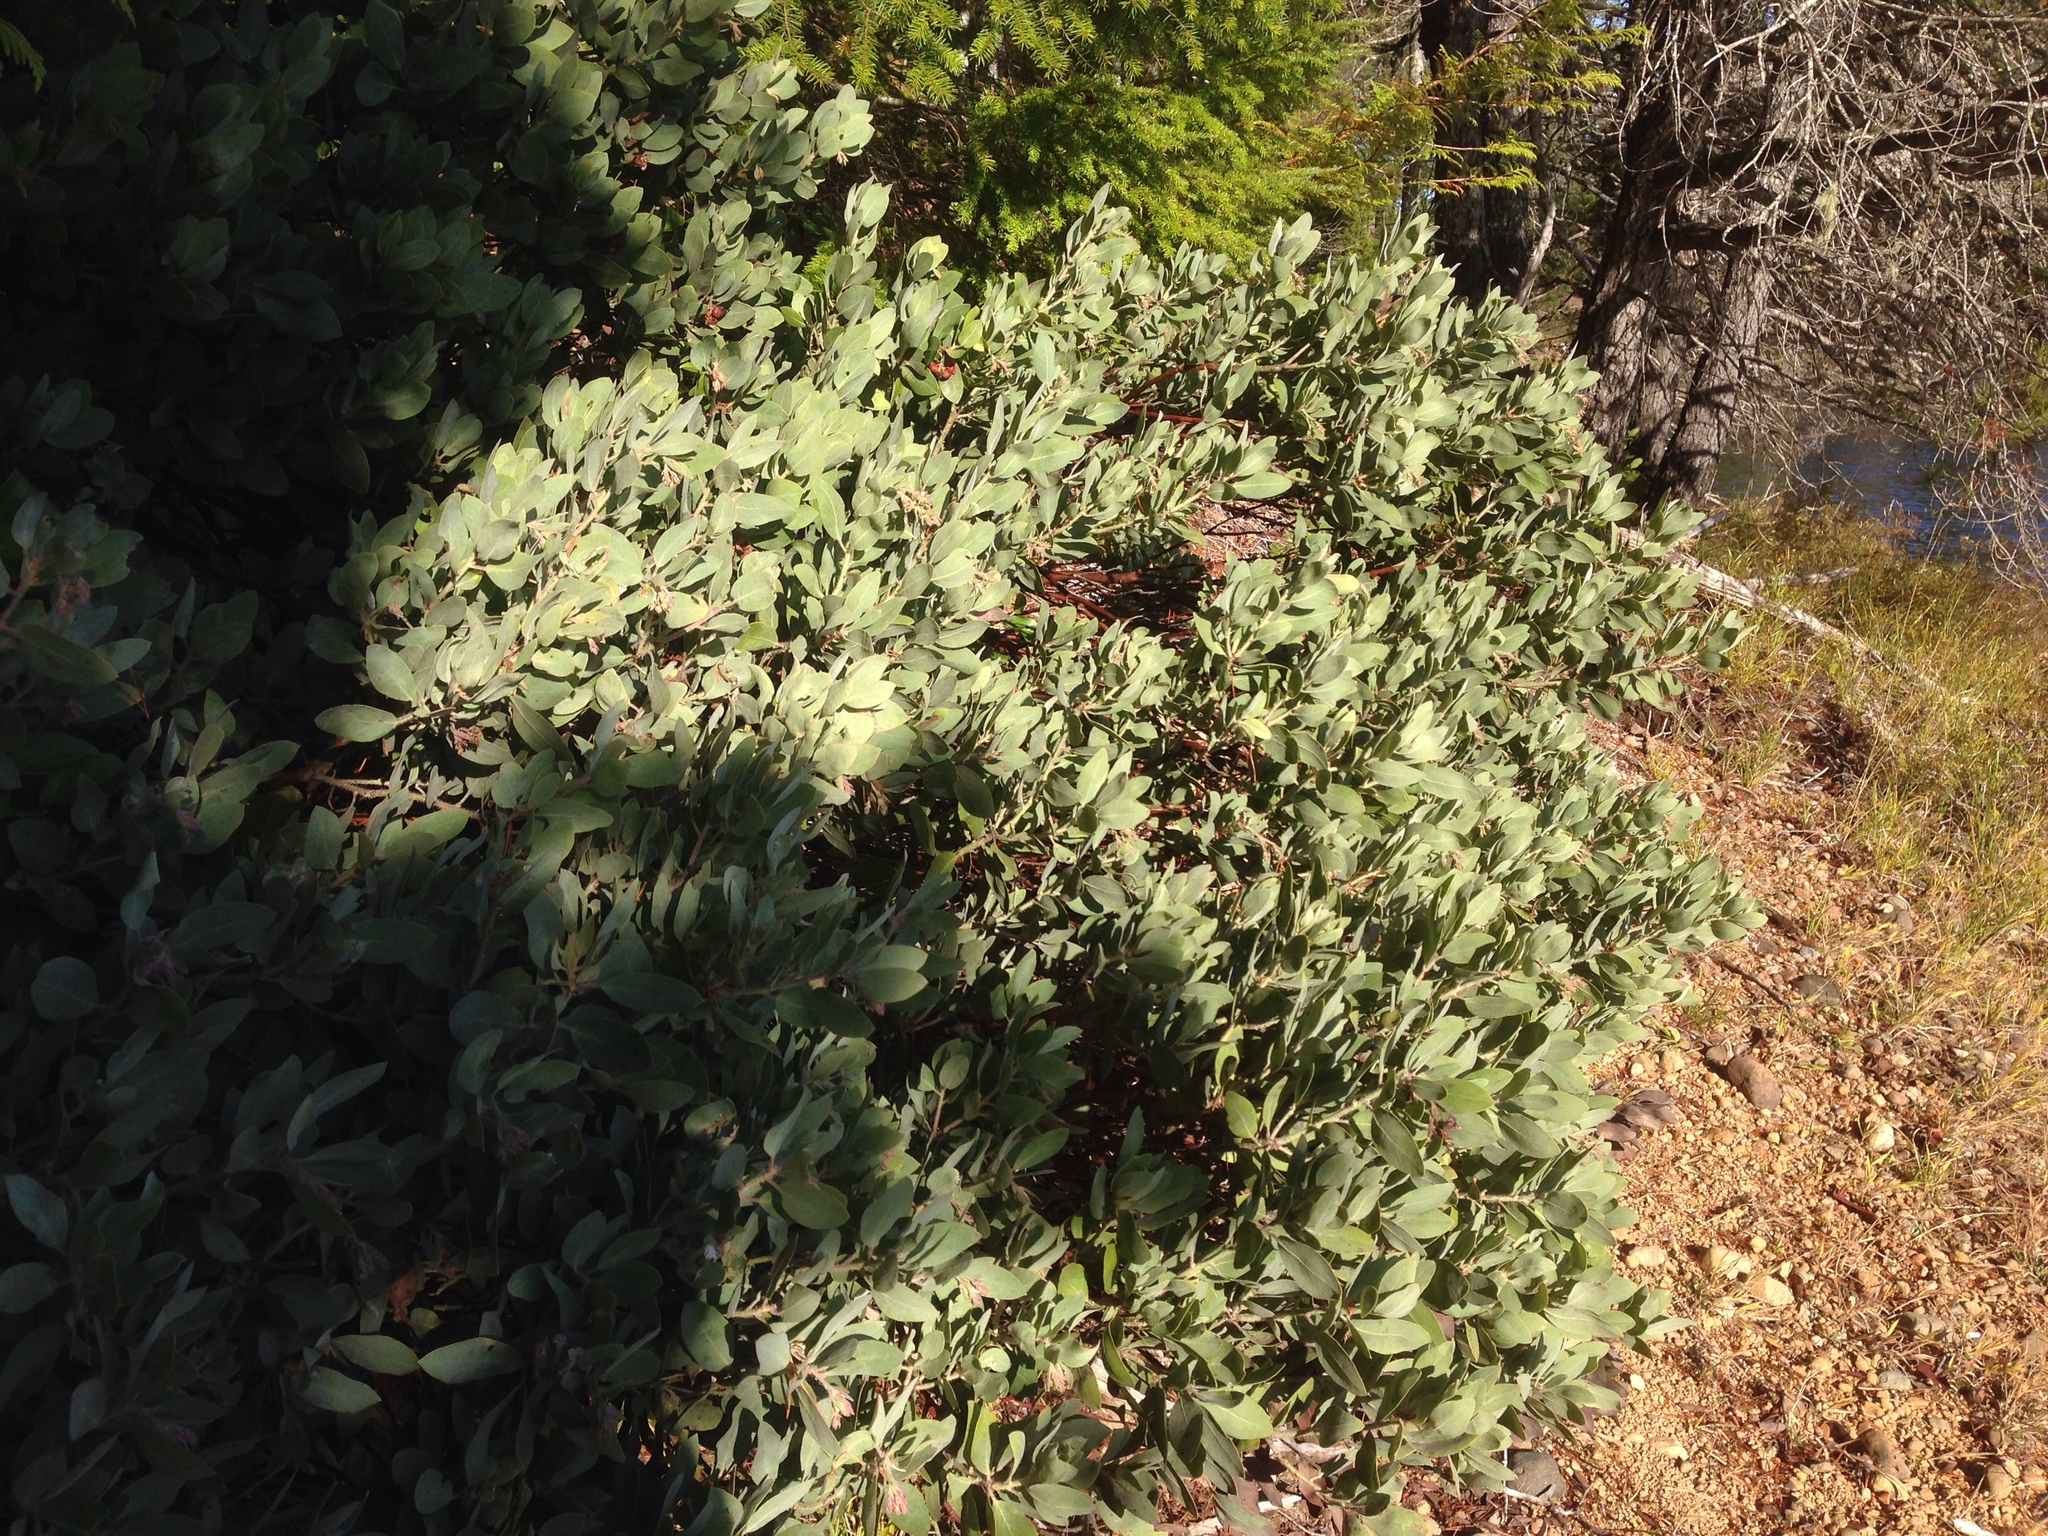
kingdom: Plantae
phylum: Tracheophyta
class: Magnoliopsida
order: Ericales
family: Ericaceae
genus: Arctostaphylos
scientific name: Arctostaphylos columbiana
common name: Bristly bearberry
